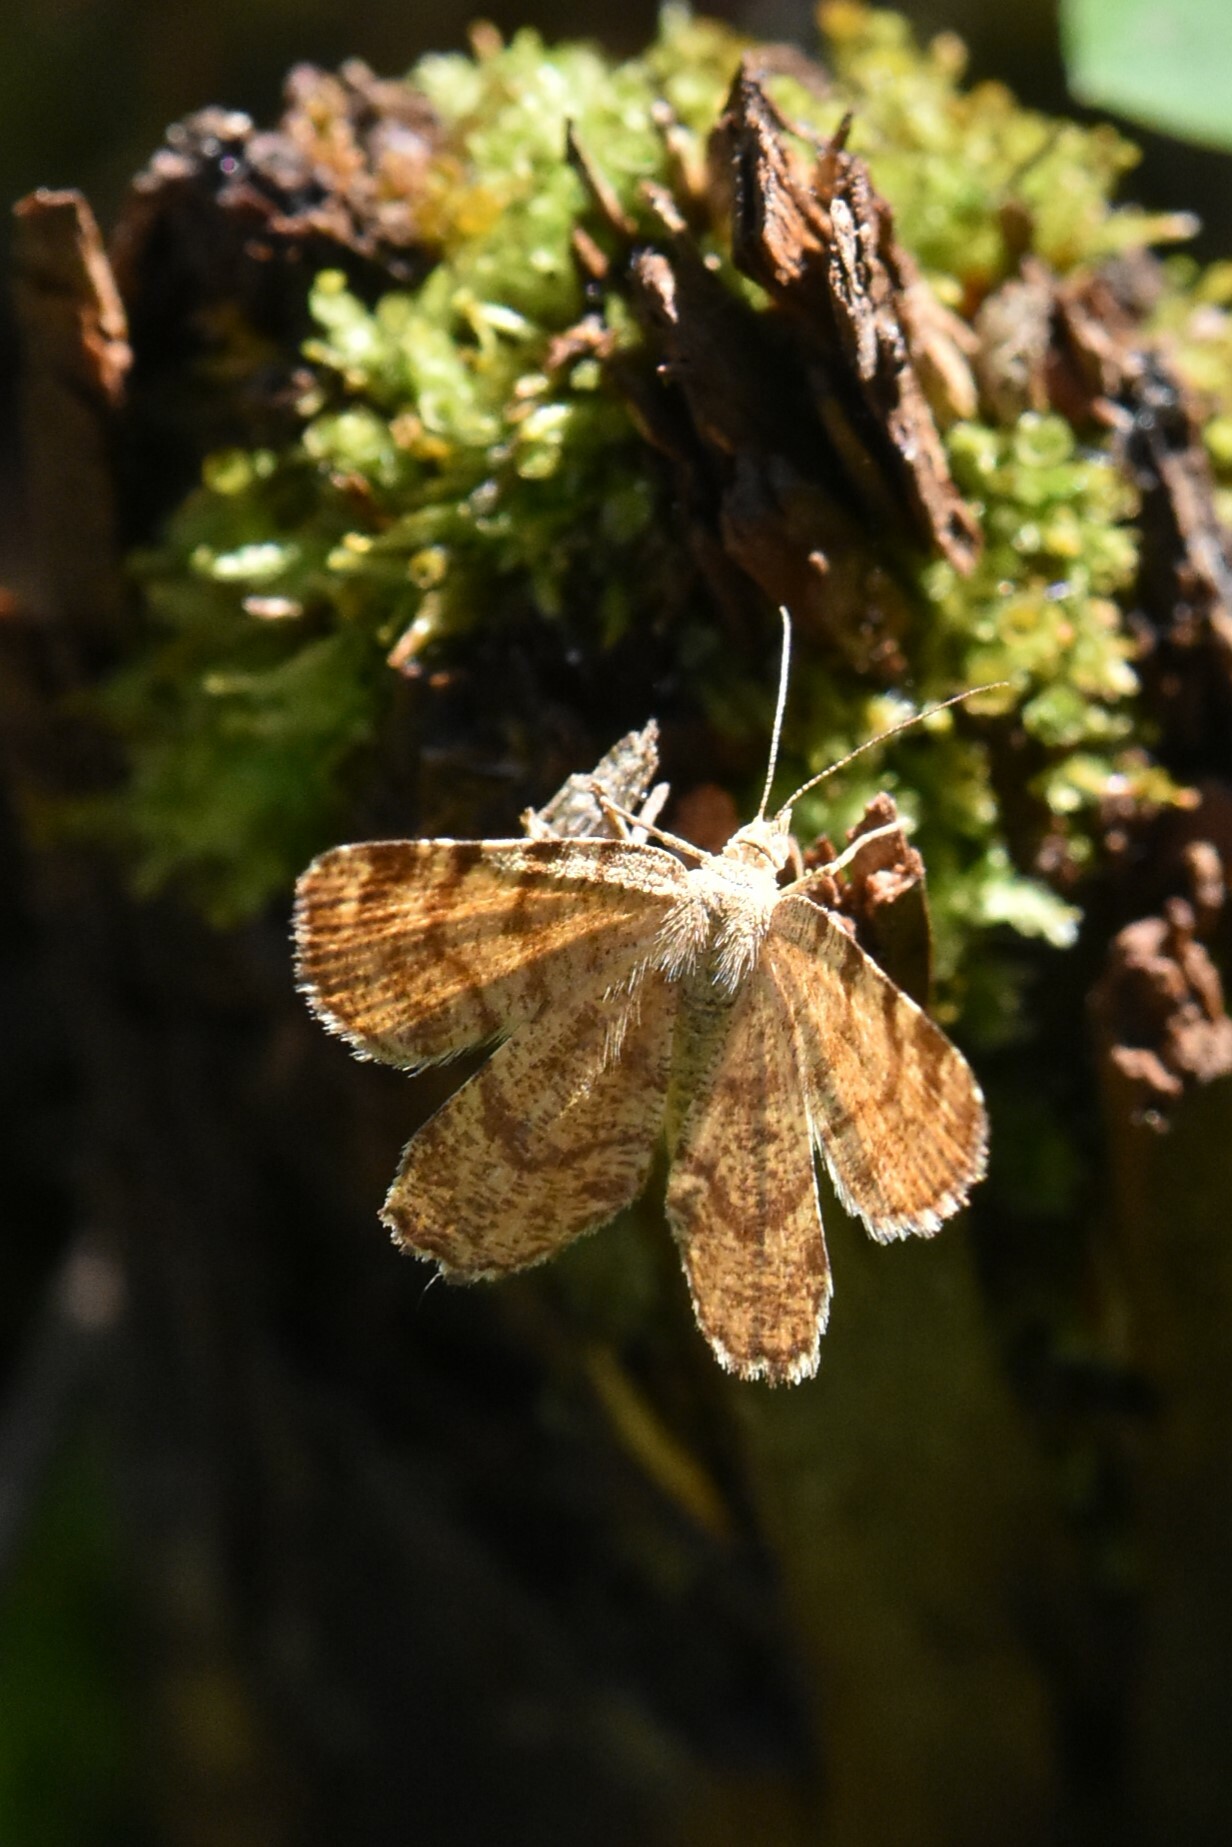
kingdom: Animalia
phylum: Arthropoda
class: Insecta
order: Lepidoptera
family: Geometridae
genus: Macaria
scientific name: Macaria brunneata
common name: Rannoch looper
